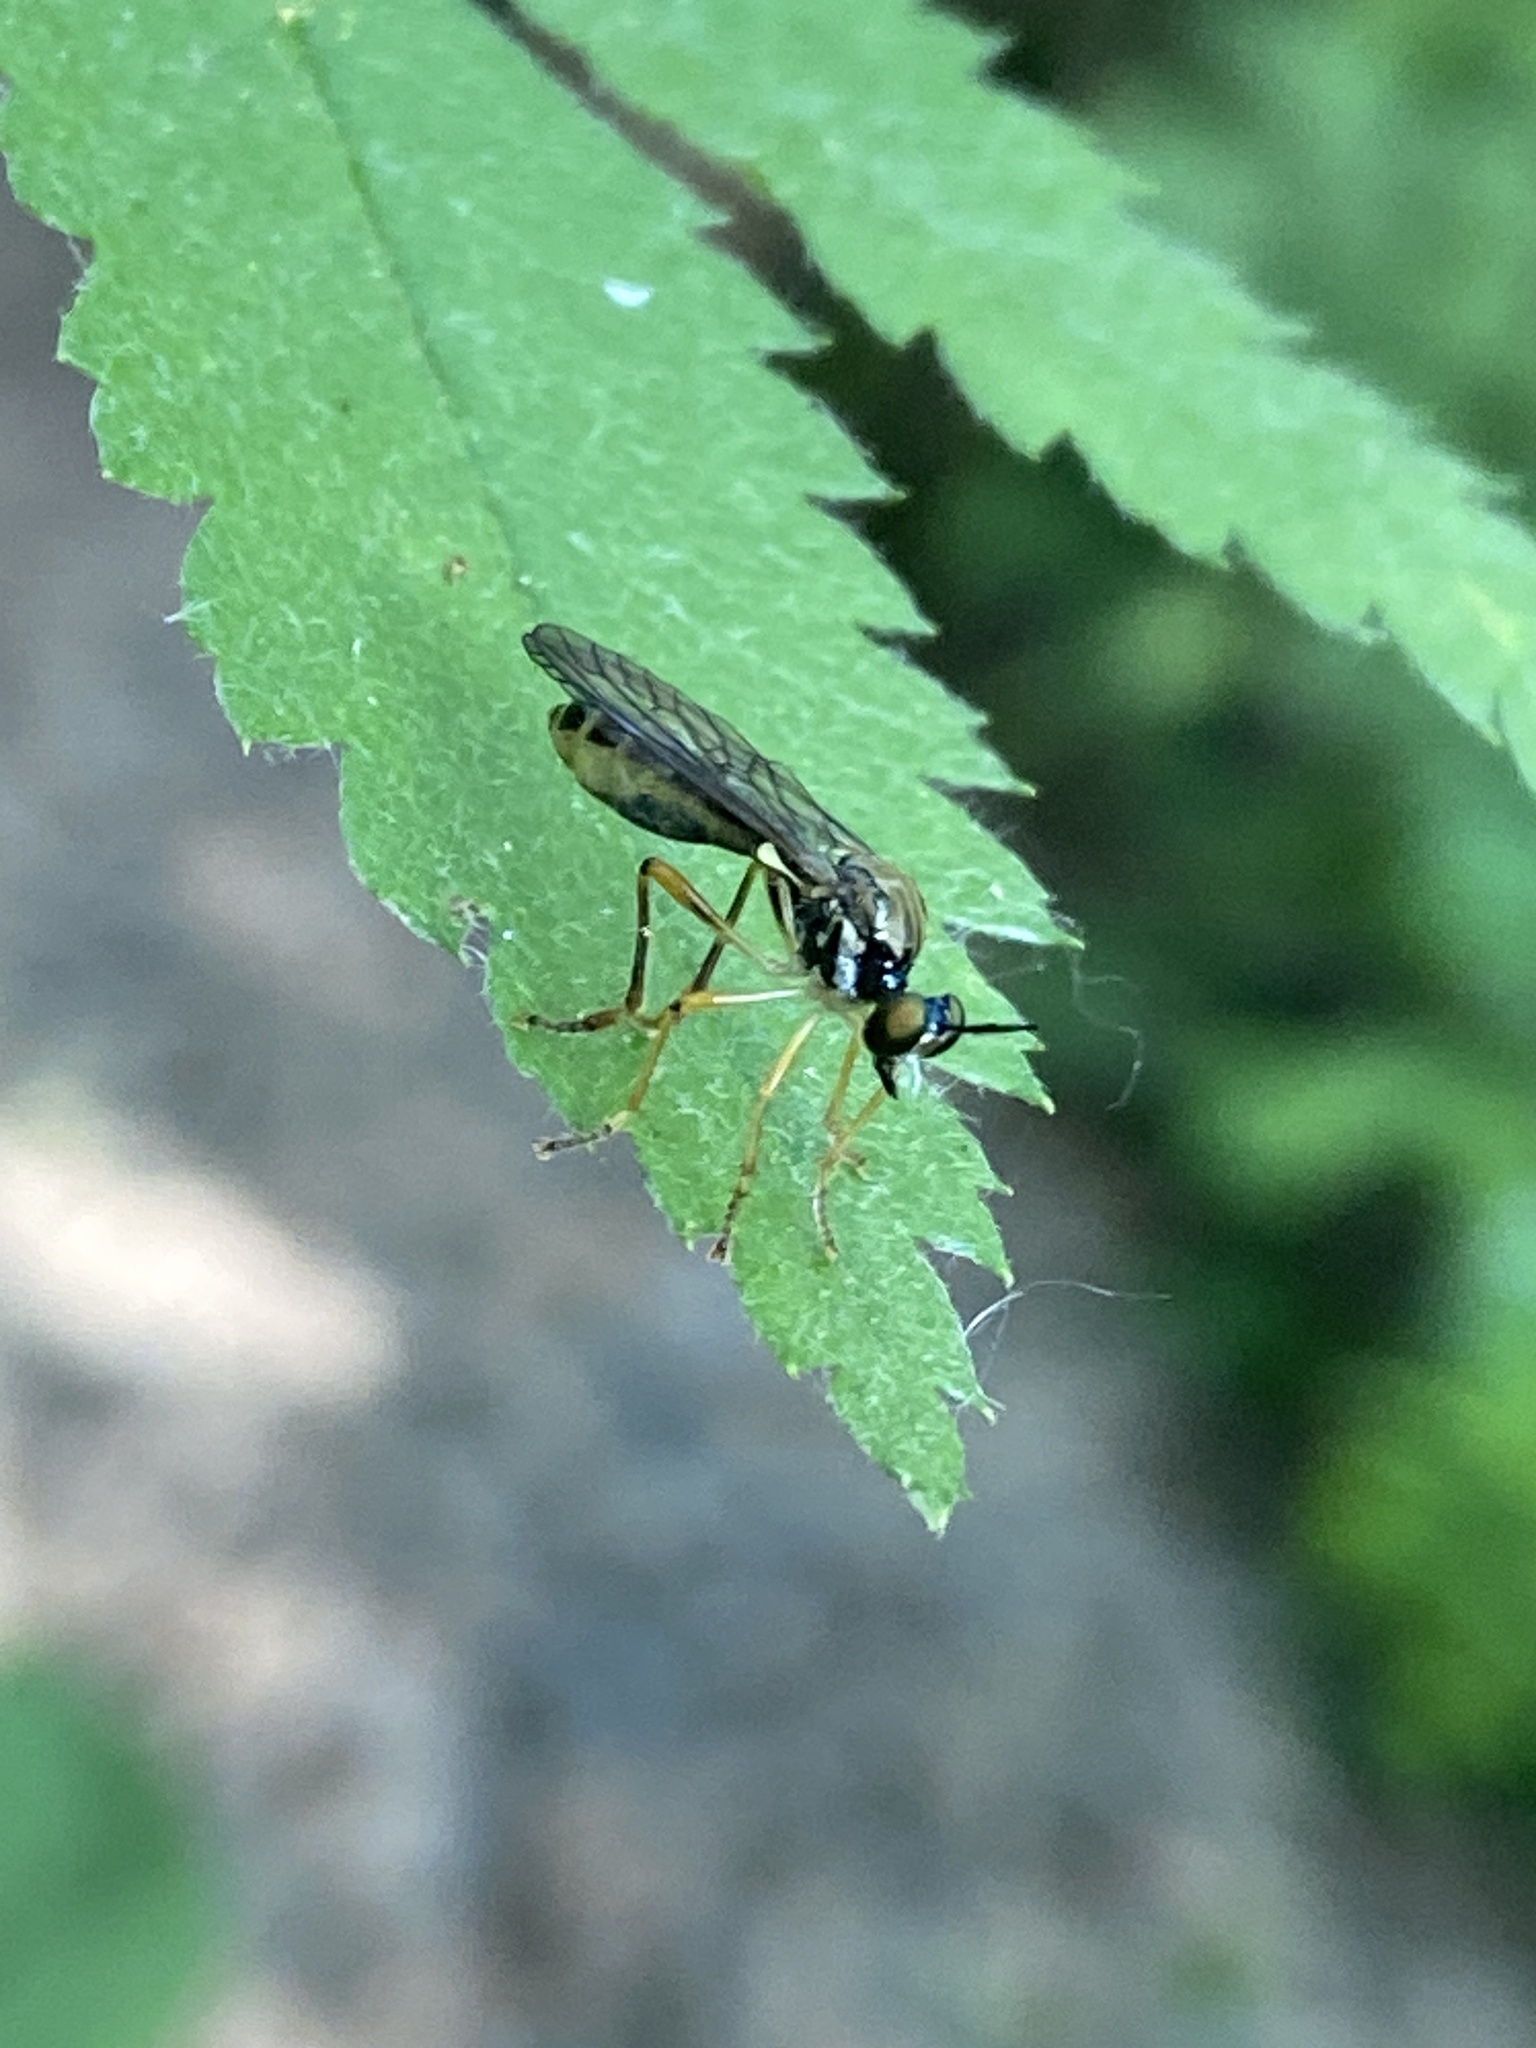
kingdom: Animalia
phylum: Arthropoda
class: Insecta
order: Diptera
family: Asilidae
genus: Dioctria
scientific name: Dioctria linearis
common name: Small yellow-legged robberfly
